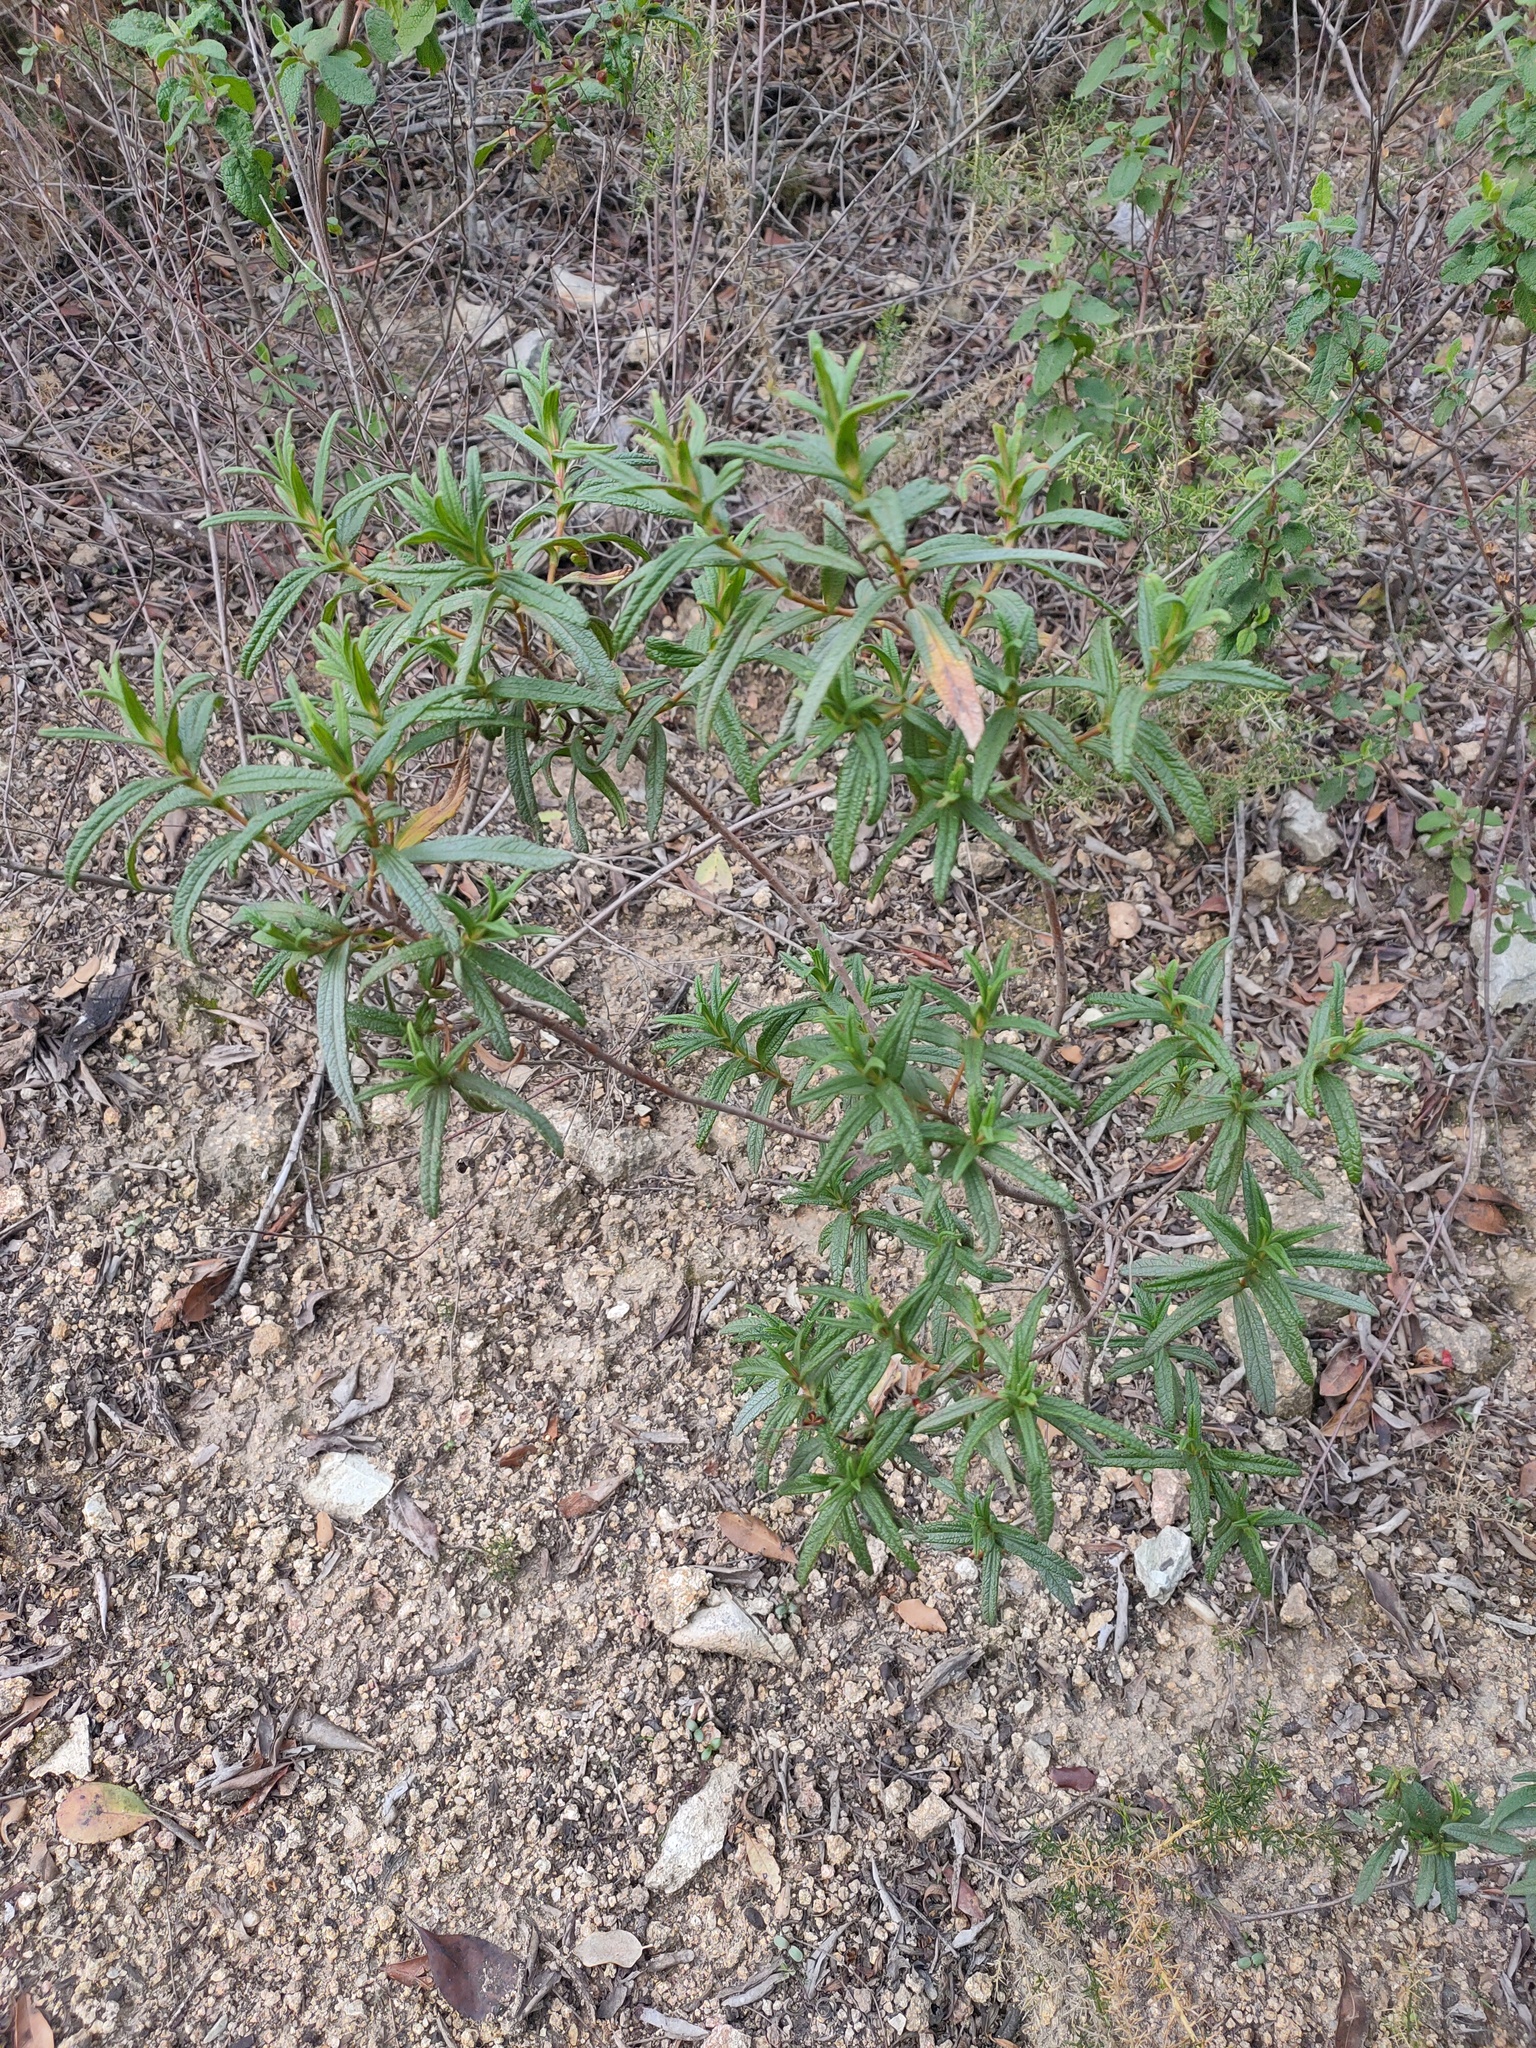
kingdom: Plantae
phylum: Tracheophyta
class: Magnoliopsida
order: Malvales
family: Cistaceae
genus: Cistus
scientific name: Cistus monspeliensis
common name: Montpelier cistus
